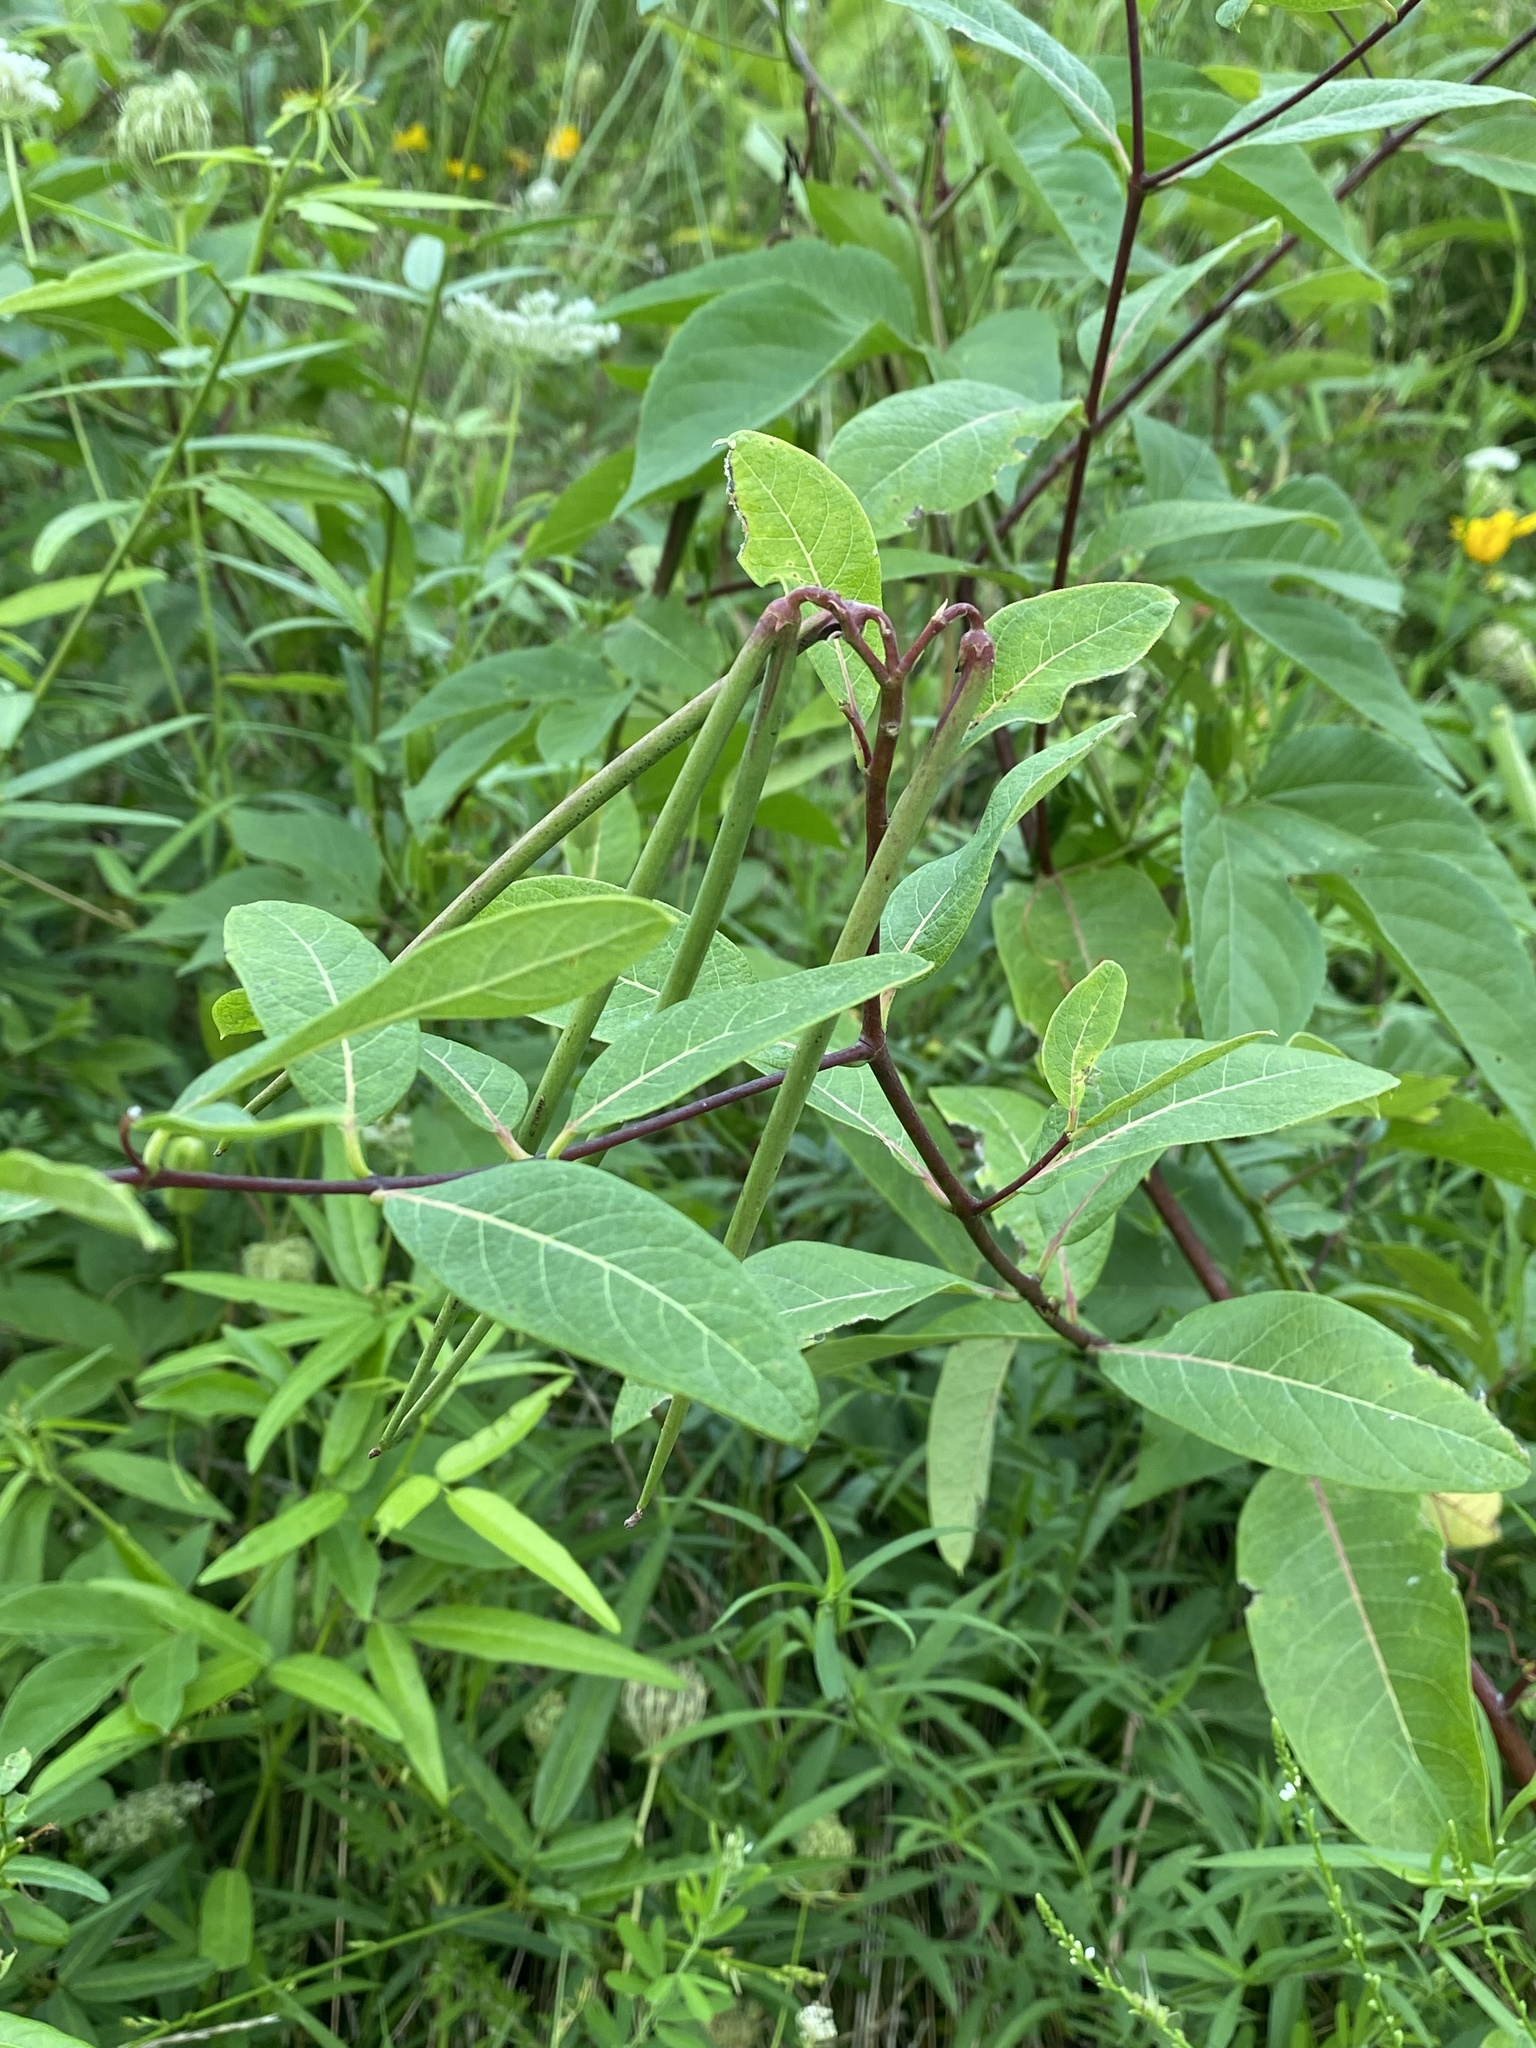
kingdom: Plantae
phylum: Tracheophyta
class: Magnoliopsida
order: Gentianales
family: Apocynaceae
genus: Apocynum
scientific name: Apocynum cannabinum
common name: Hemp dogbane
